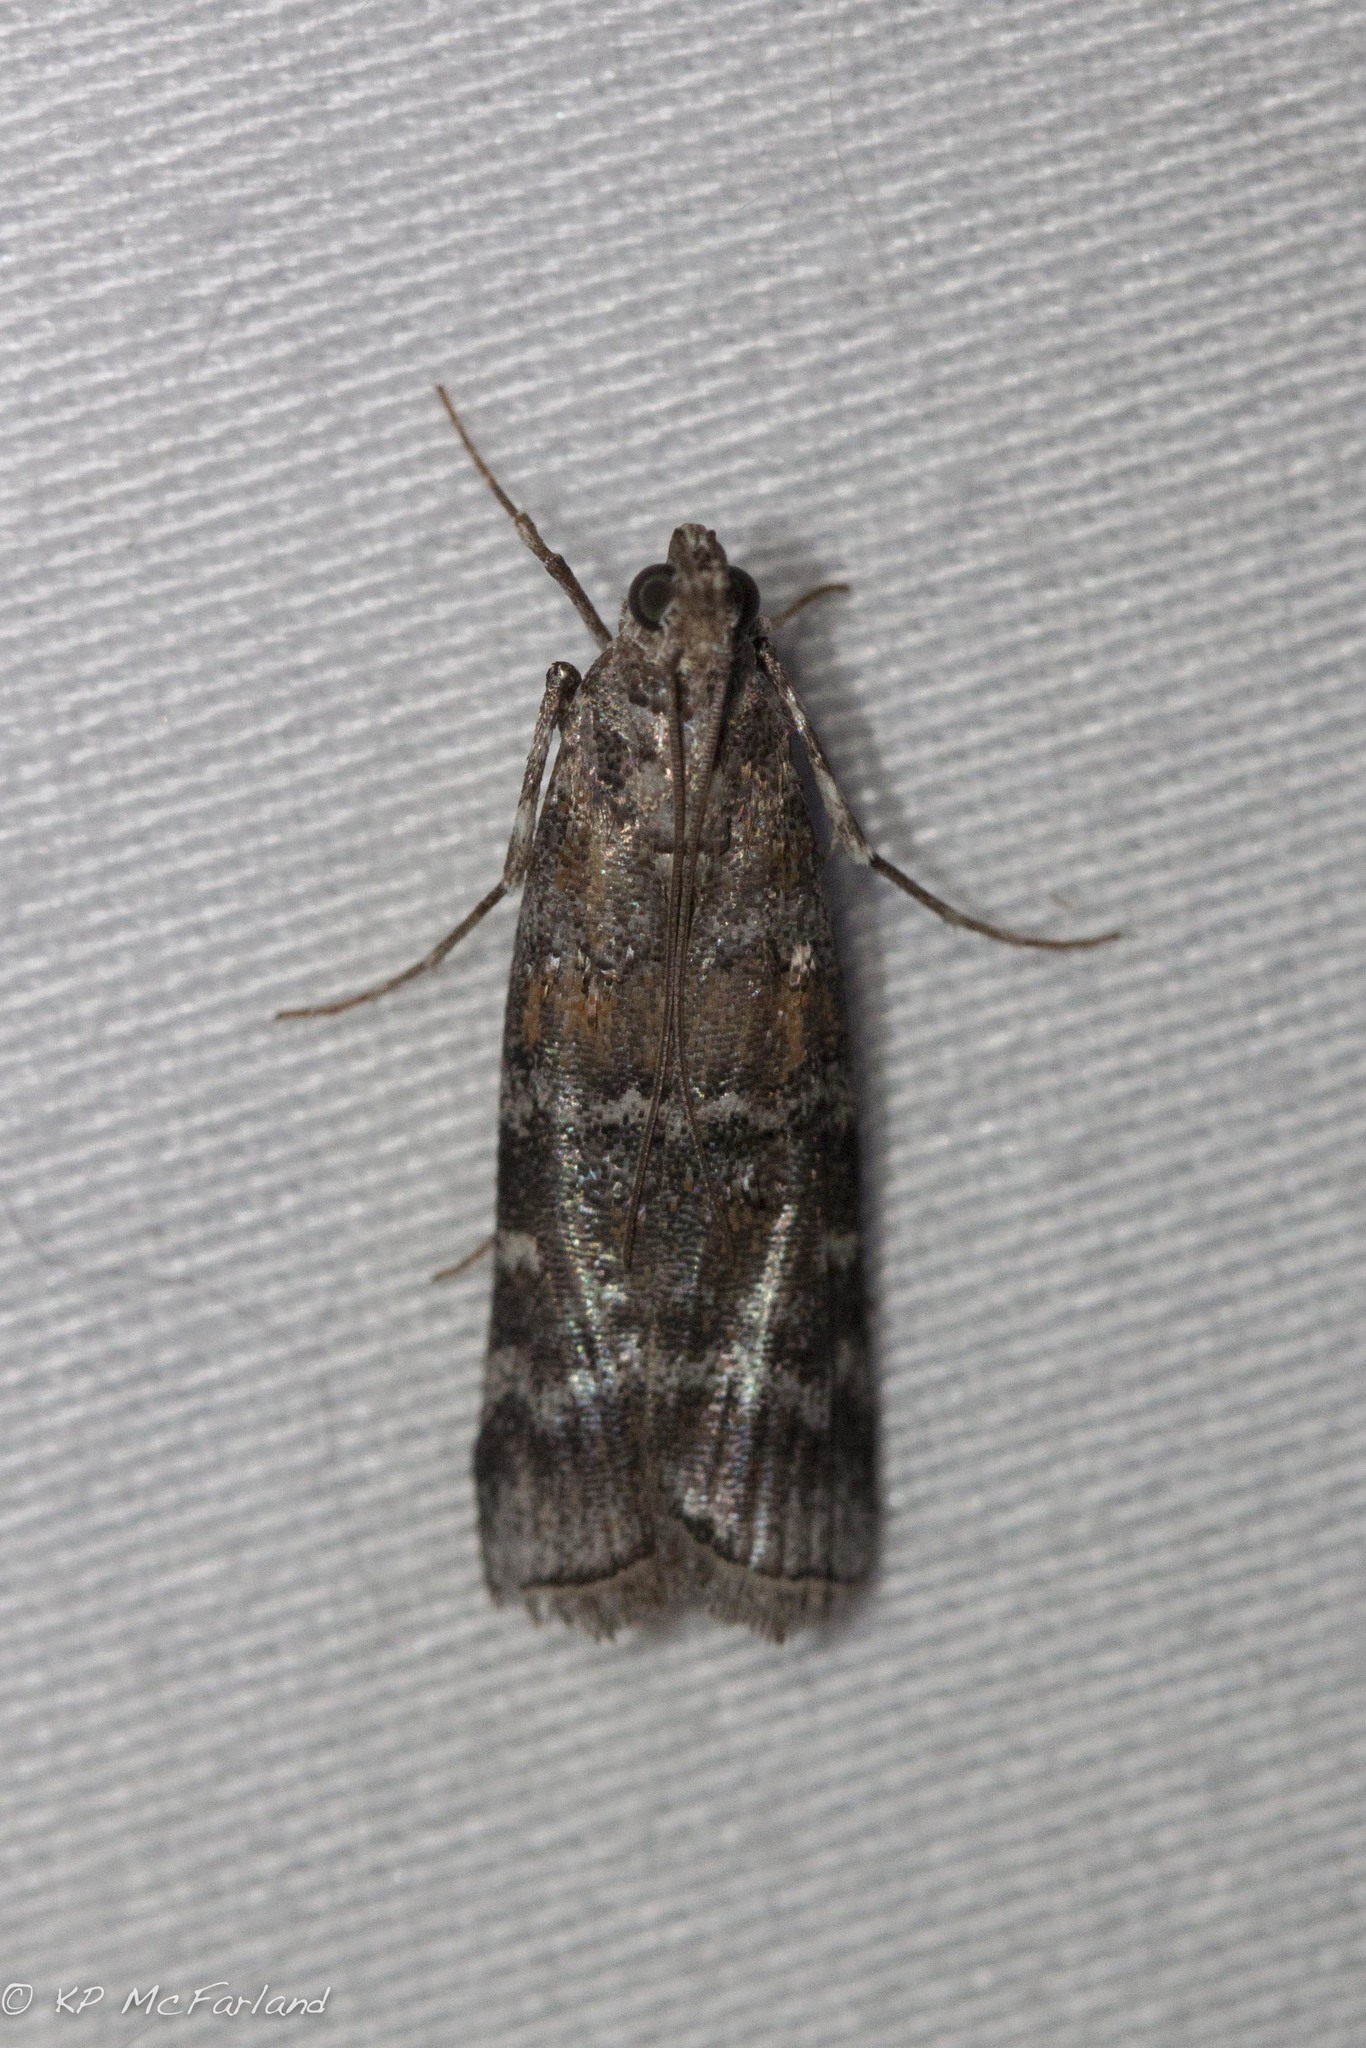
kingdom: Animalia
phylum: Arthropoda
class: Insecta
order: Lepidoptera
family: Pyralidae
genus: Dioryctria
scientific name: Dioryctria abietivorella
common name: Evergreen coneworm moth
